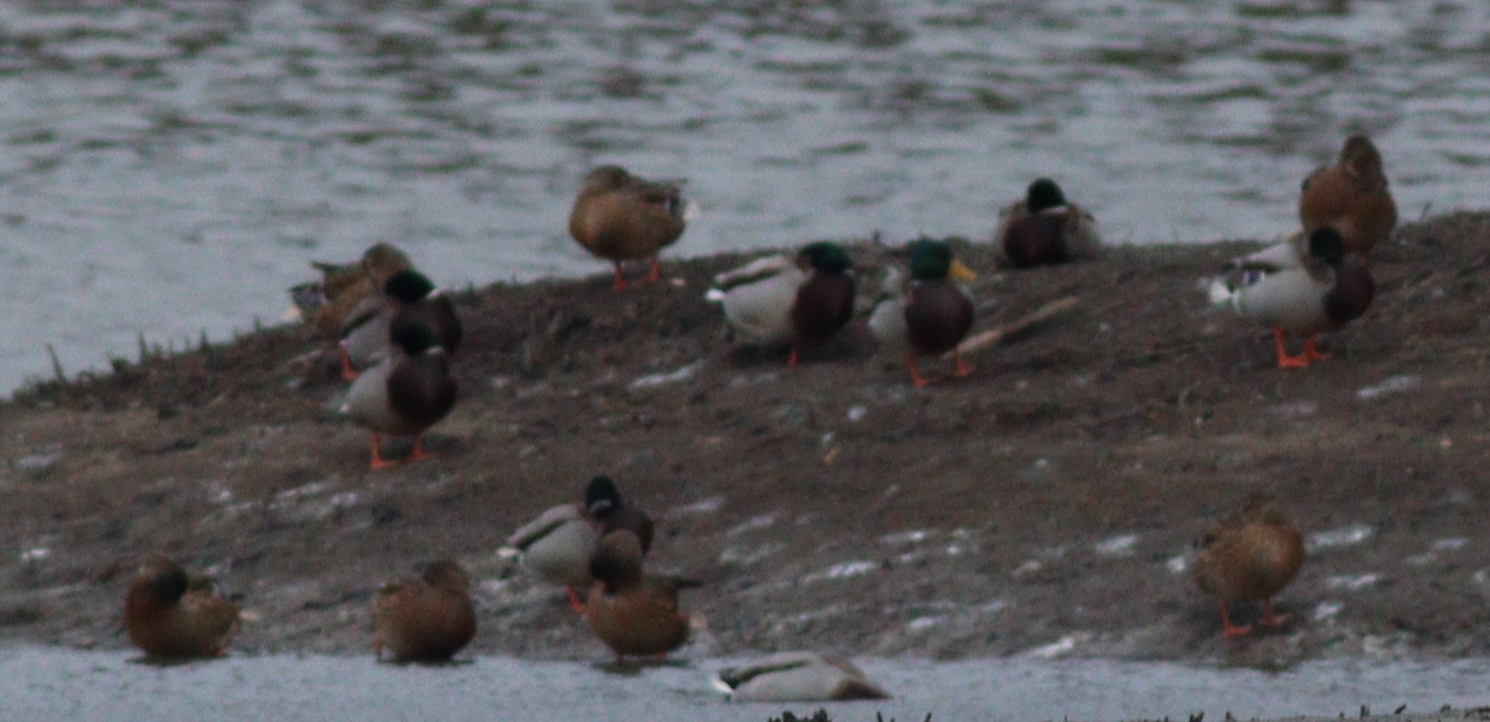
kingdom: Animalia
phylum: Chordata
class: Aves
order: Anseriformes
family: Anatidae
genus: Anas
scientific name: Anas platyrhynchos
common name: Mallard
